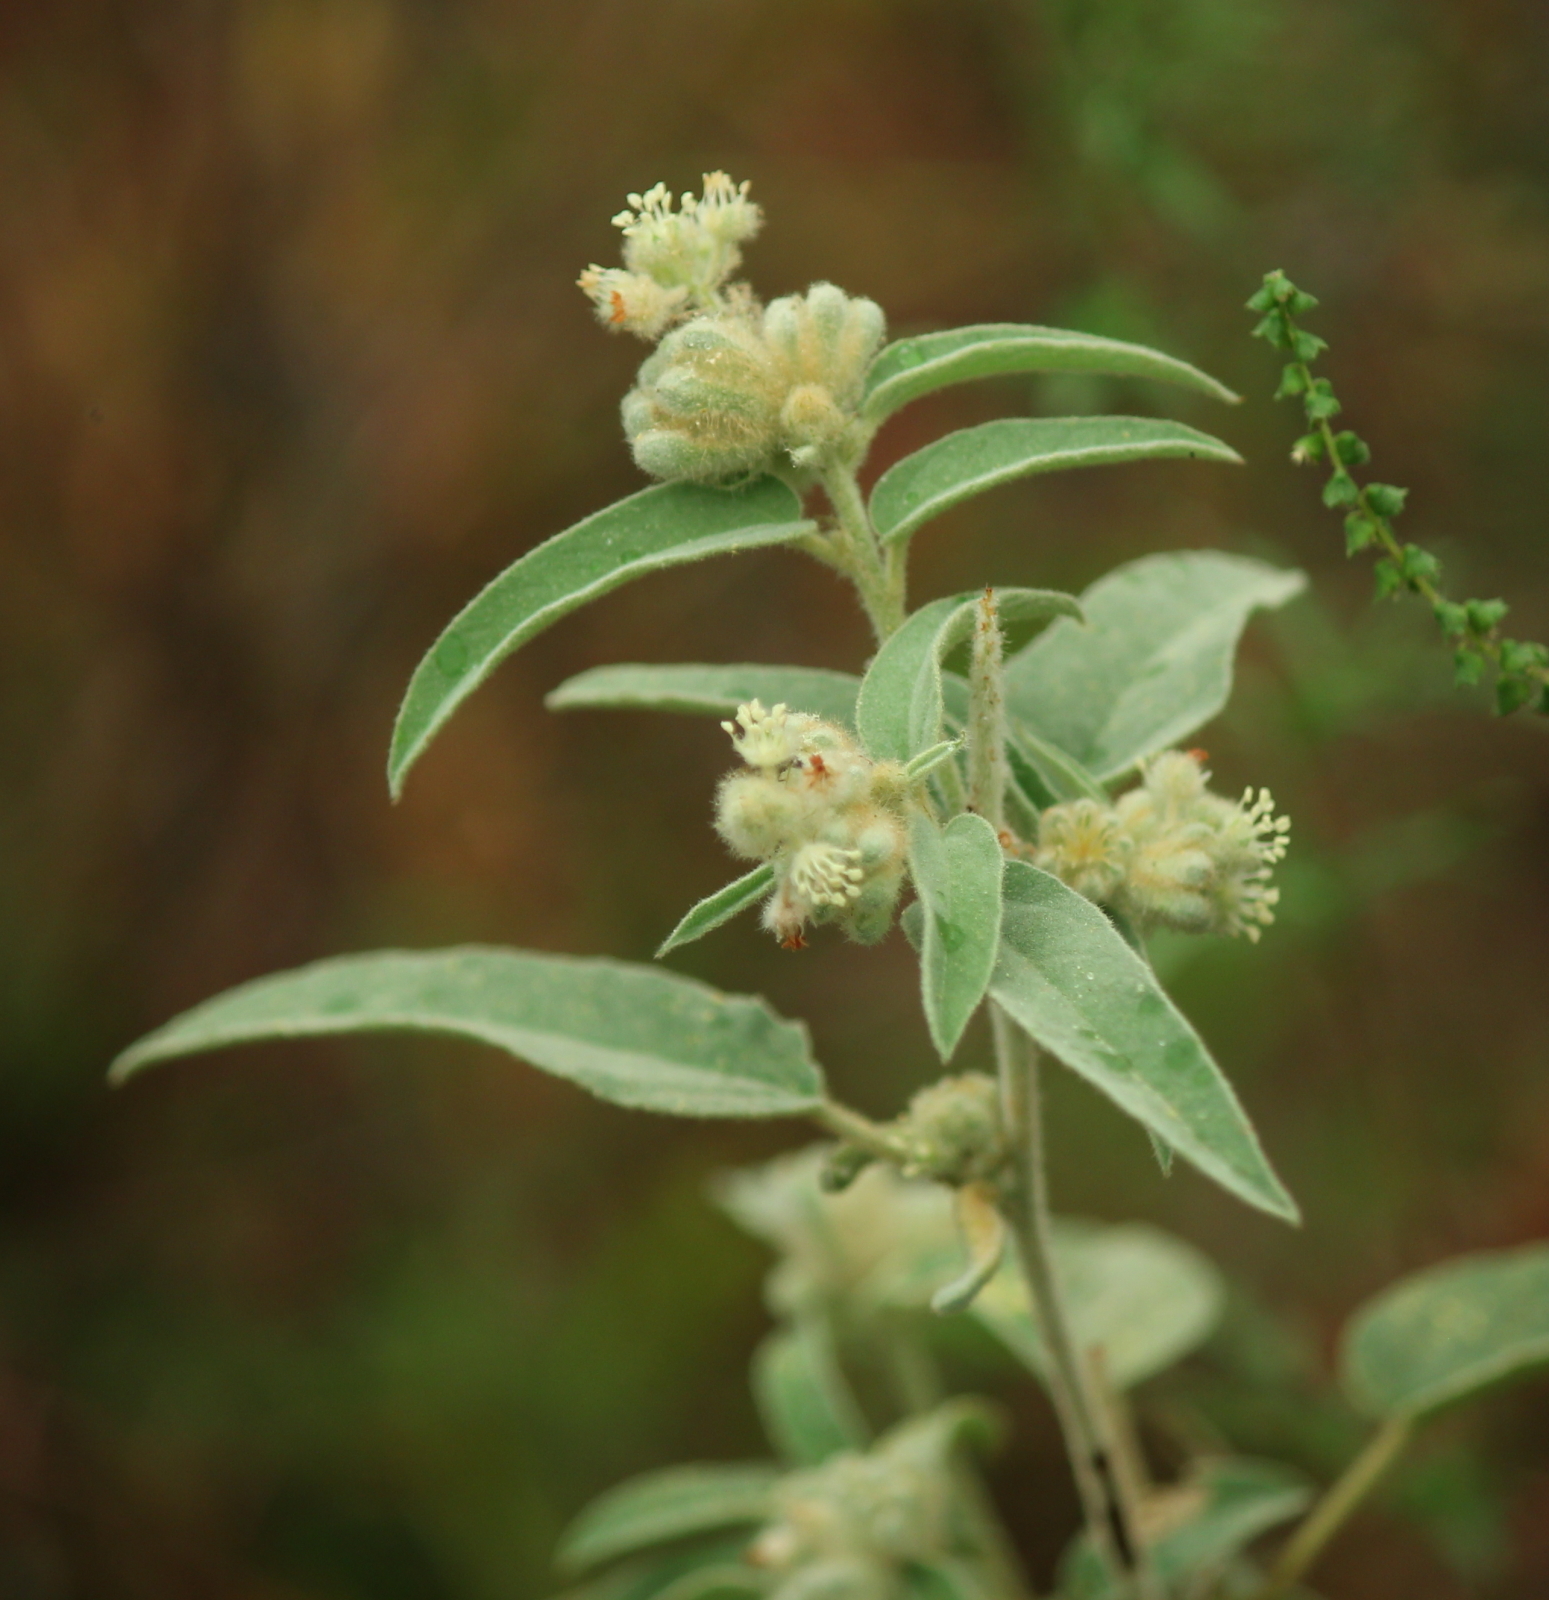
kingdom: Plantae
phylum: Tracheophyta
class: Magnoliopsida
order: Malpighiales
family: Euphorbiaceae
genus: Croton
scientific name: Croton lindheimeri
